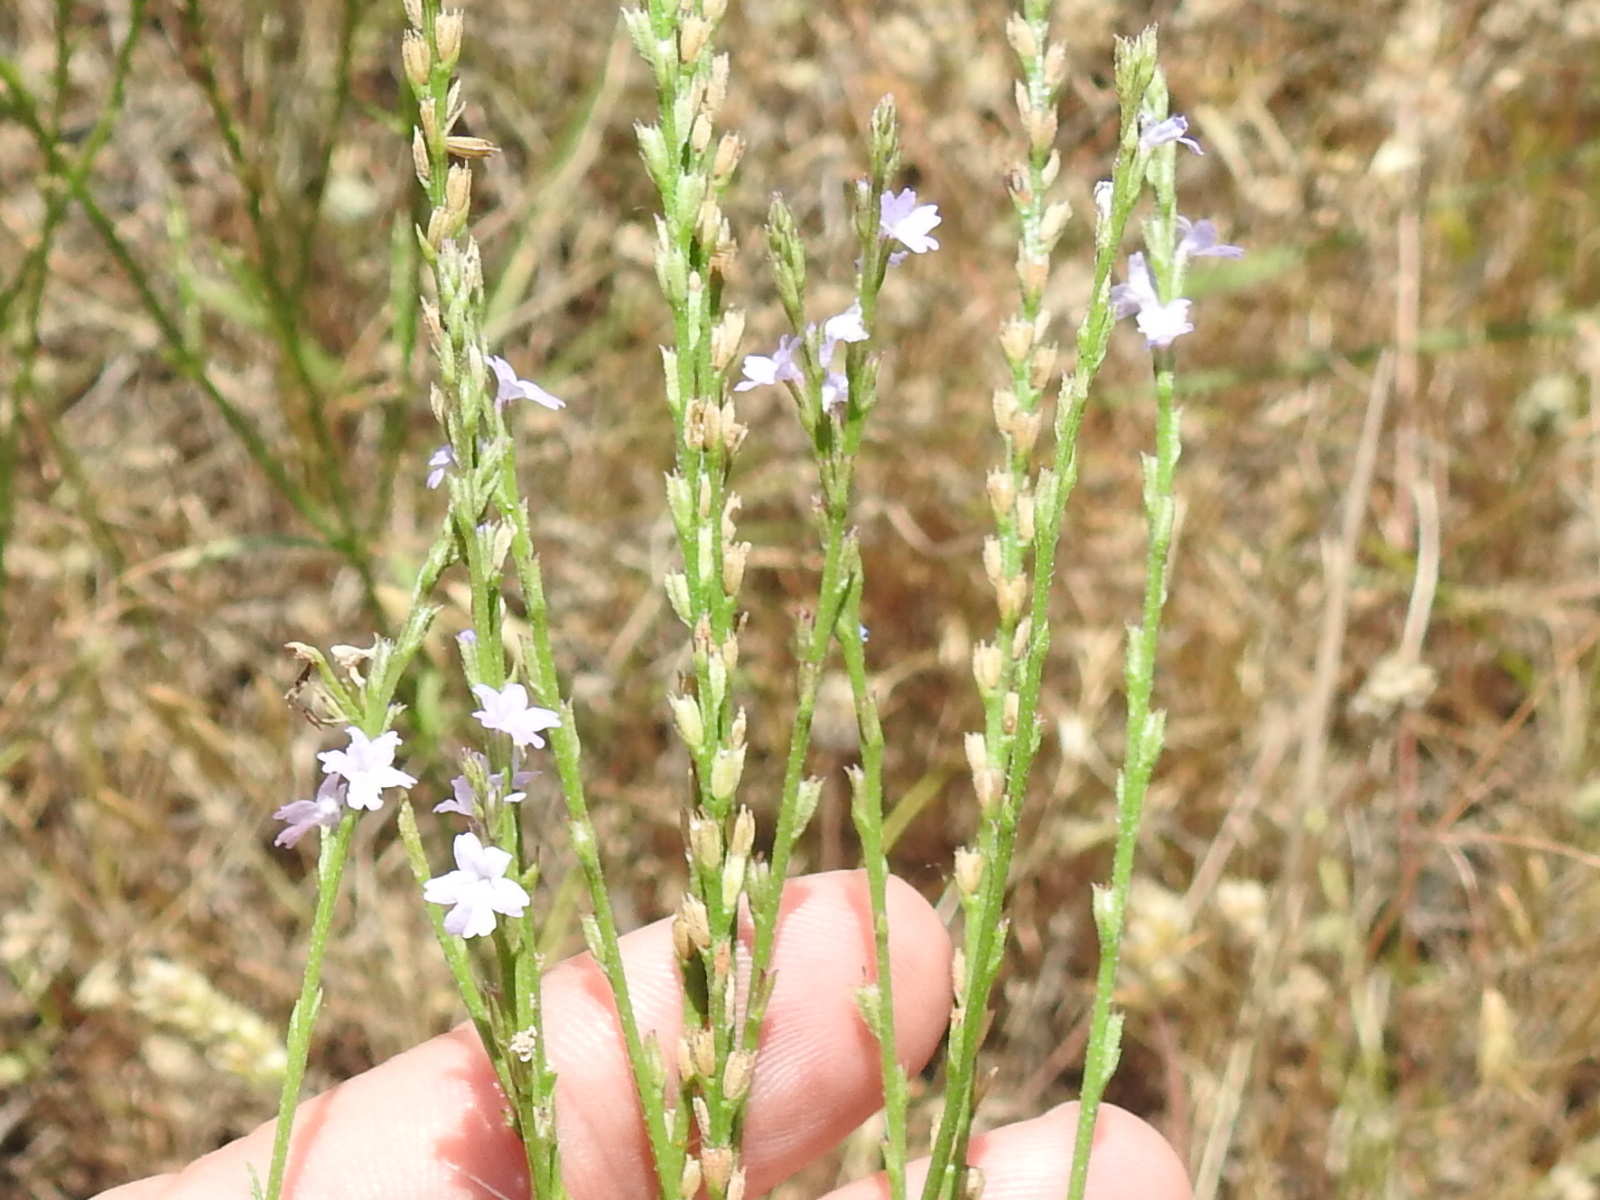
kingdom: Plantae
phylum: Tracheophyta
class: Magnoliopsida
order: Lamiales
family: Verbenaceae
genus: Verbena
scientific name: Verbena halei
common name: Texas vervain
